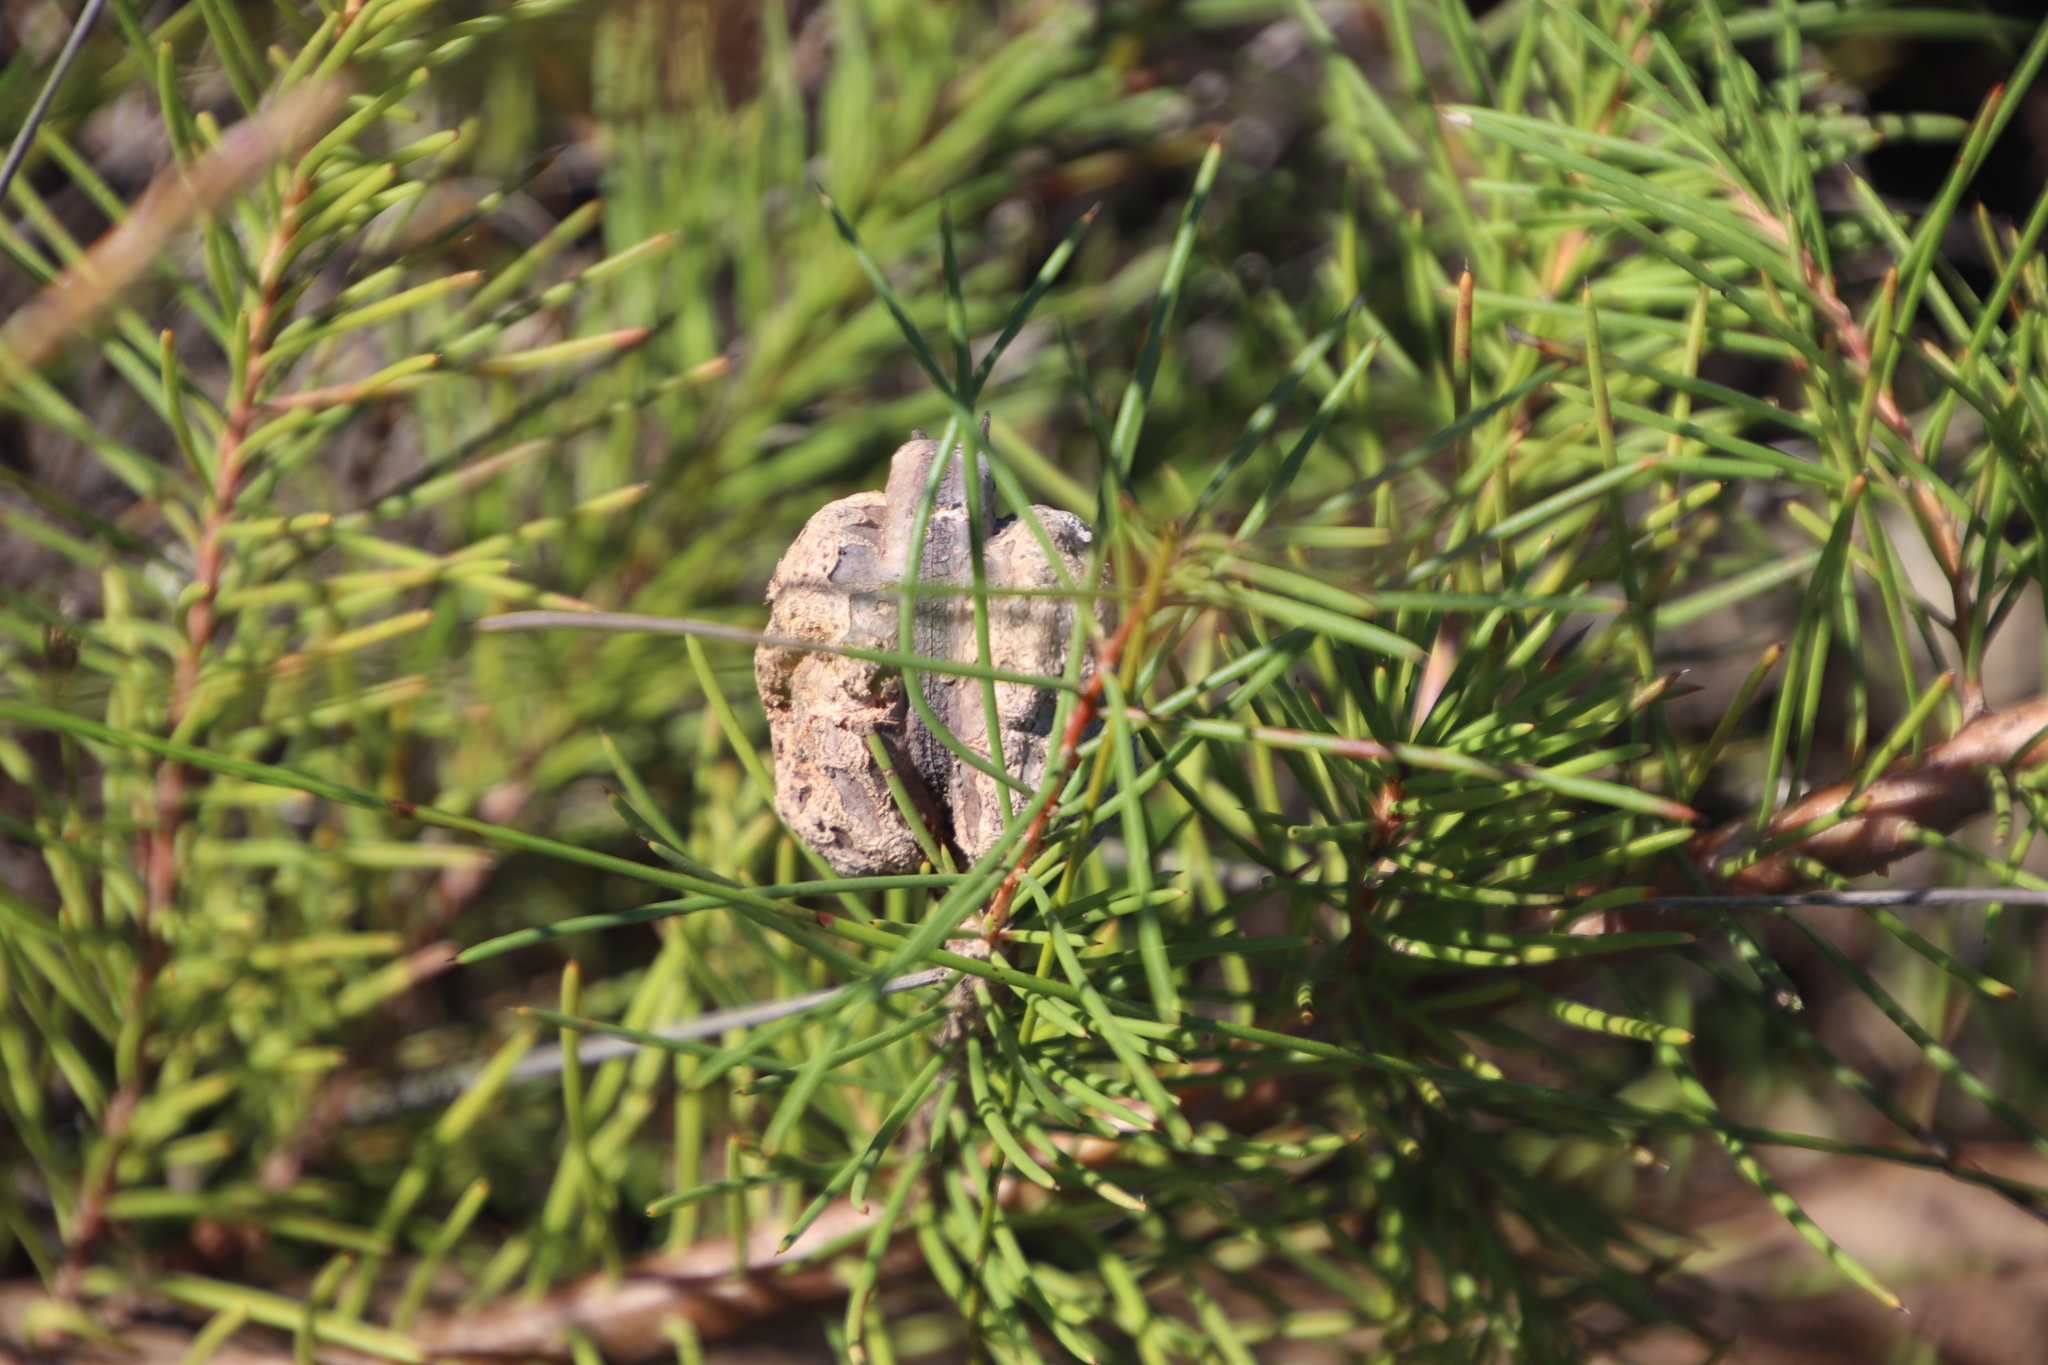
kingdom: Plantae
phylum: Tracheophyta
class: Magnoliopsida
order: Proteales
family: Proteaceae
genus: Hakea
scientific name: Hakea sericea
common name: Needle bush
